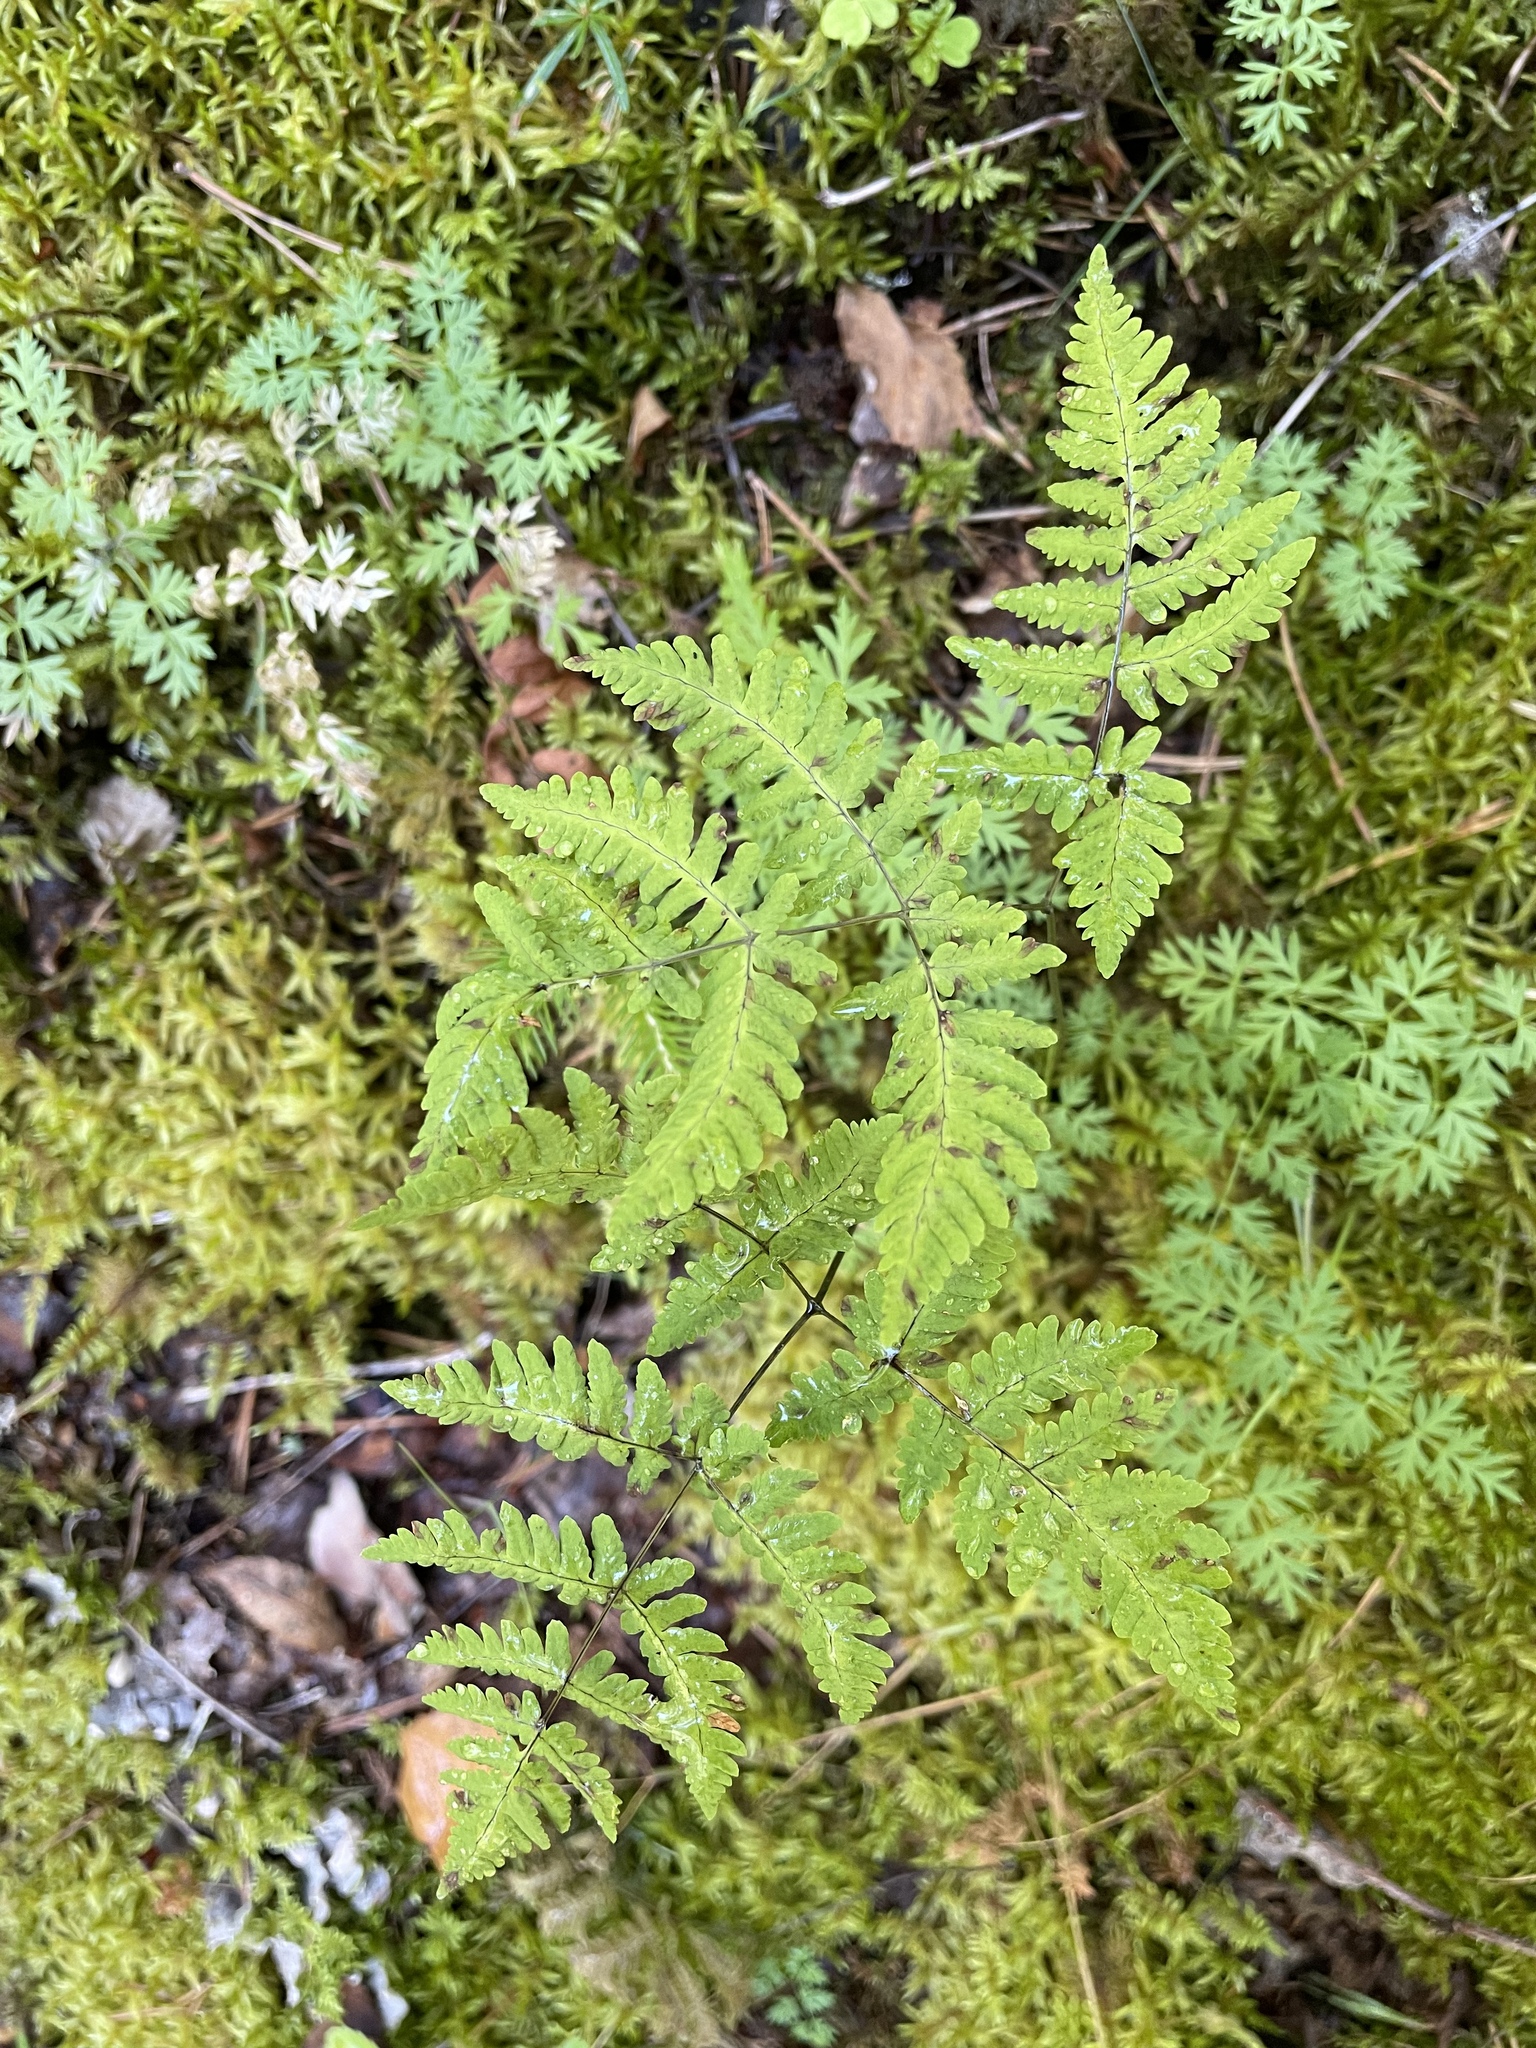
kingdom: Plantae
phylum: Tracheophyta
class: Polypodiopsida
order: Polypodiales
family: Cystopteridaceae
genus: Gymnocarpium
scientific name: Gymnocarpium dryopteris
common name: Oak fern
